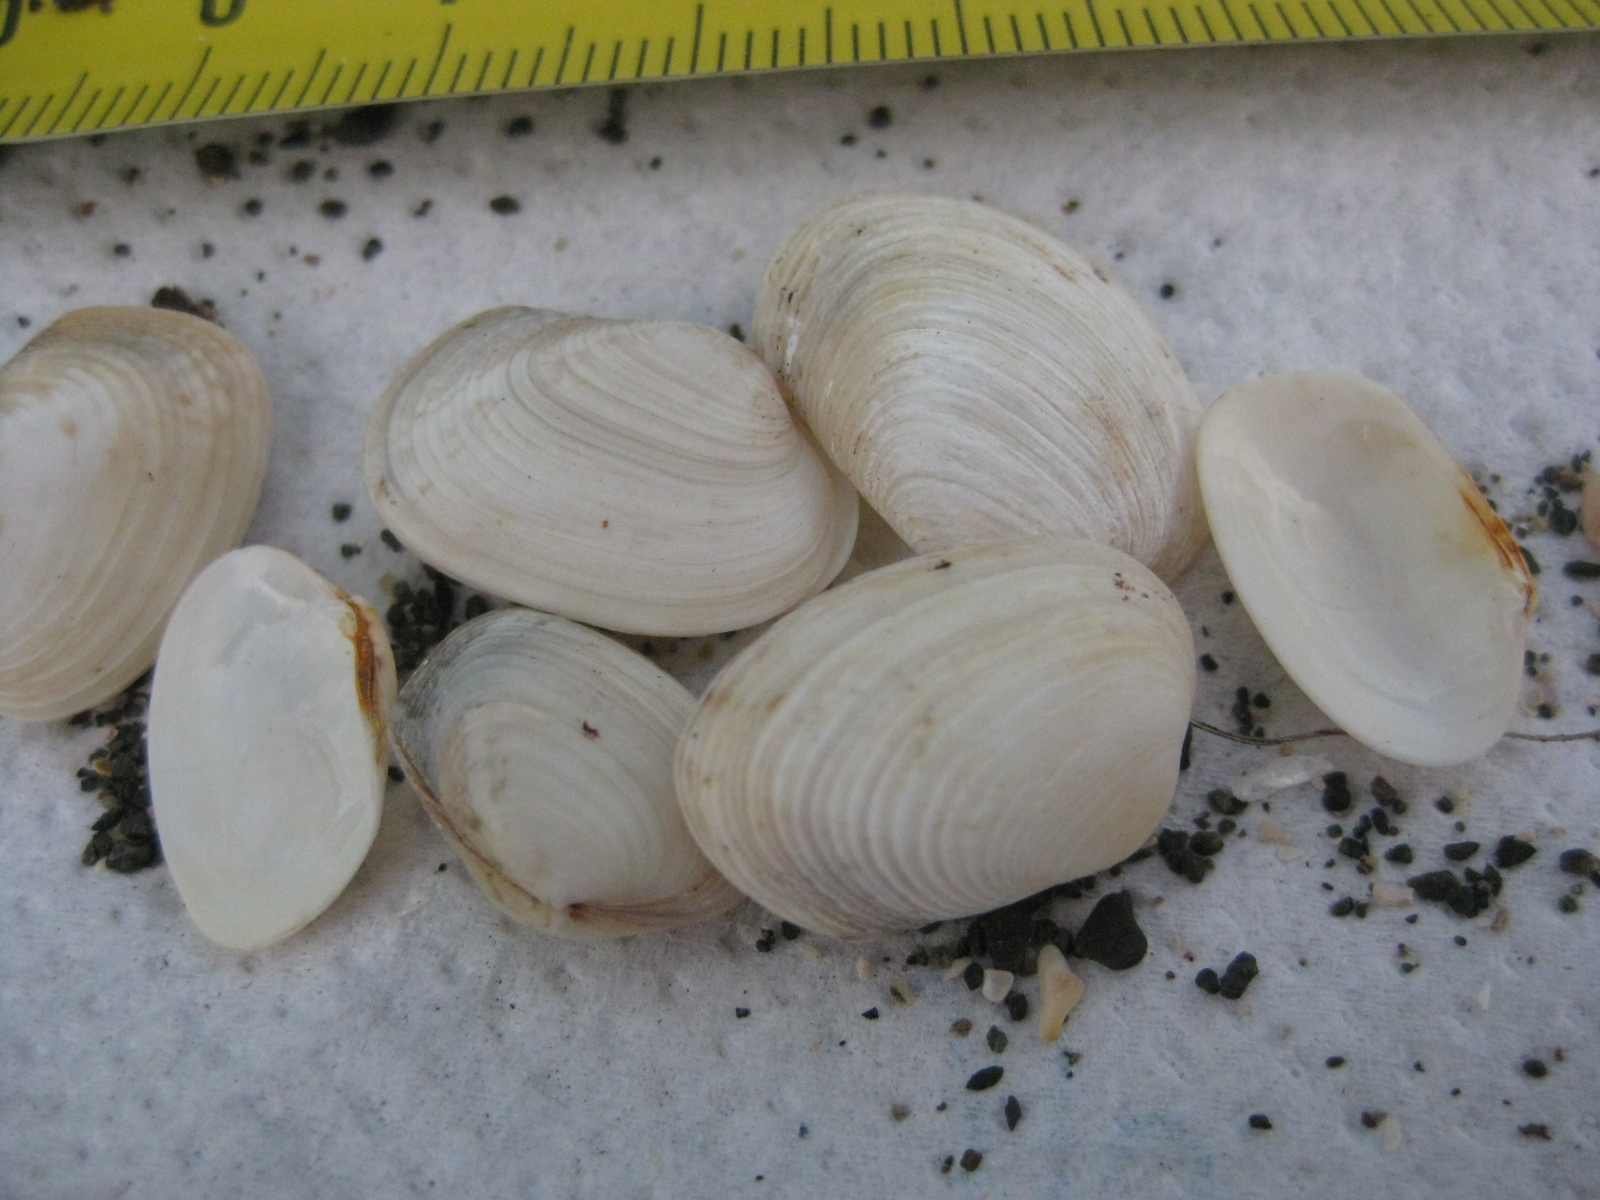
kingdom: Animalia
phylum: Mollusca
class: Bivalvia
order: Venerida
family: Veneridae
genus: Irus
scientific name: Irus reflexus
